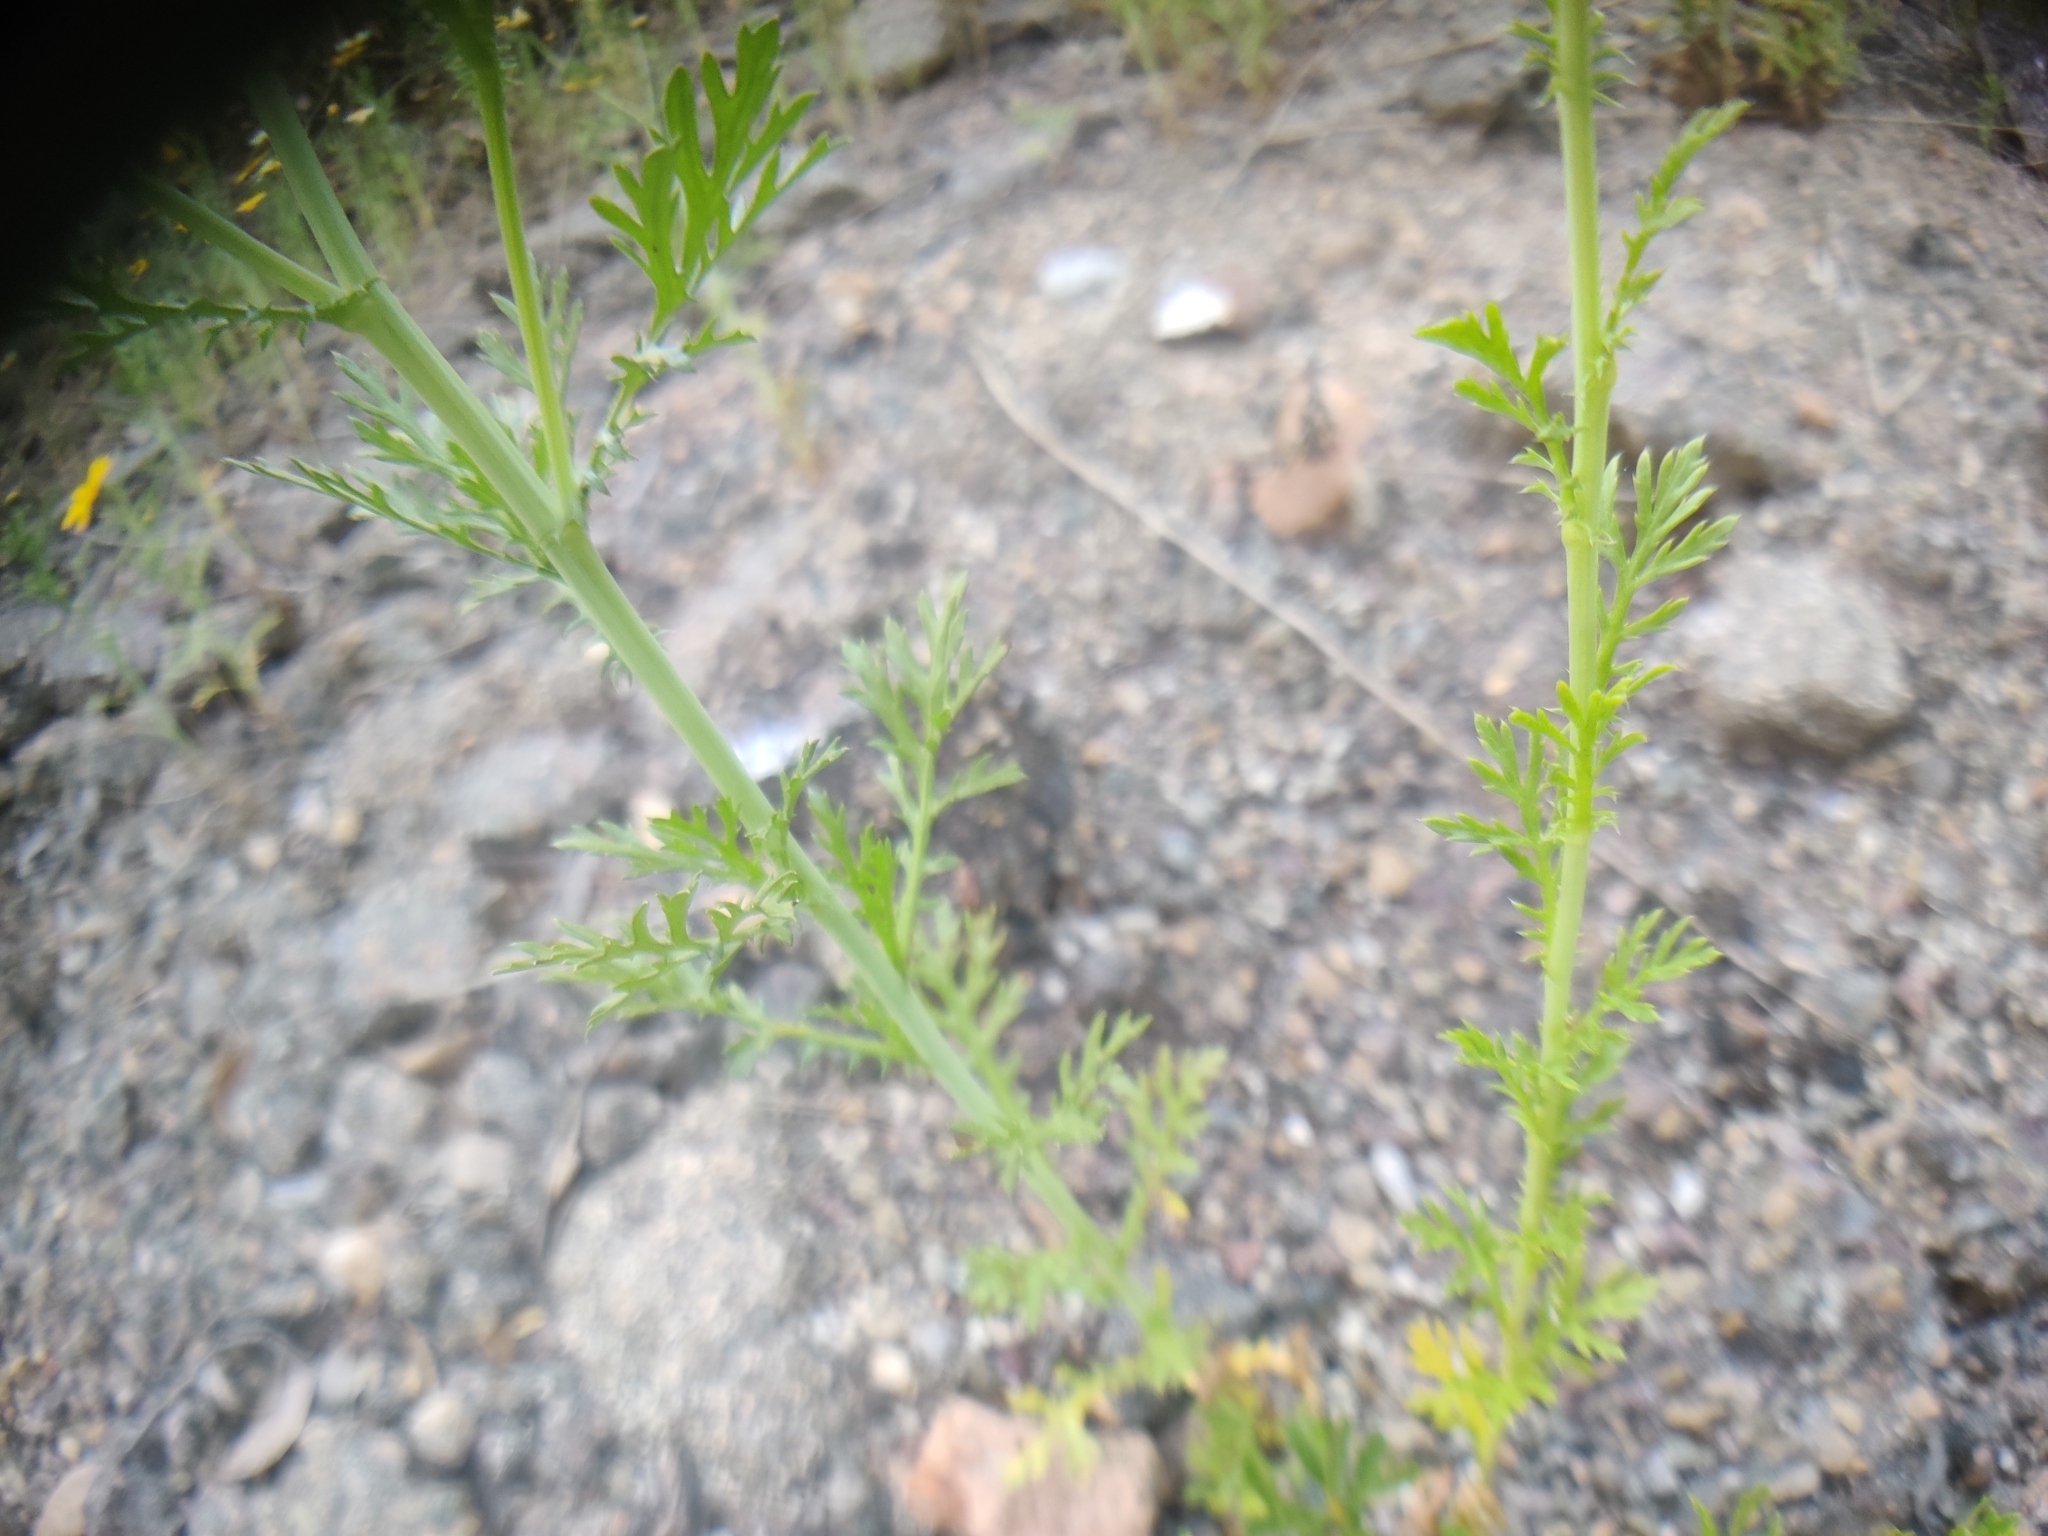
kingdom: Plantae
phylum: Tracheophyta
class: Magnoliopsida
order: Asterales
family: Asteraceae
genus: Glebionis
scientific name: Glebionis coronaria
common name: Crowndaisy
